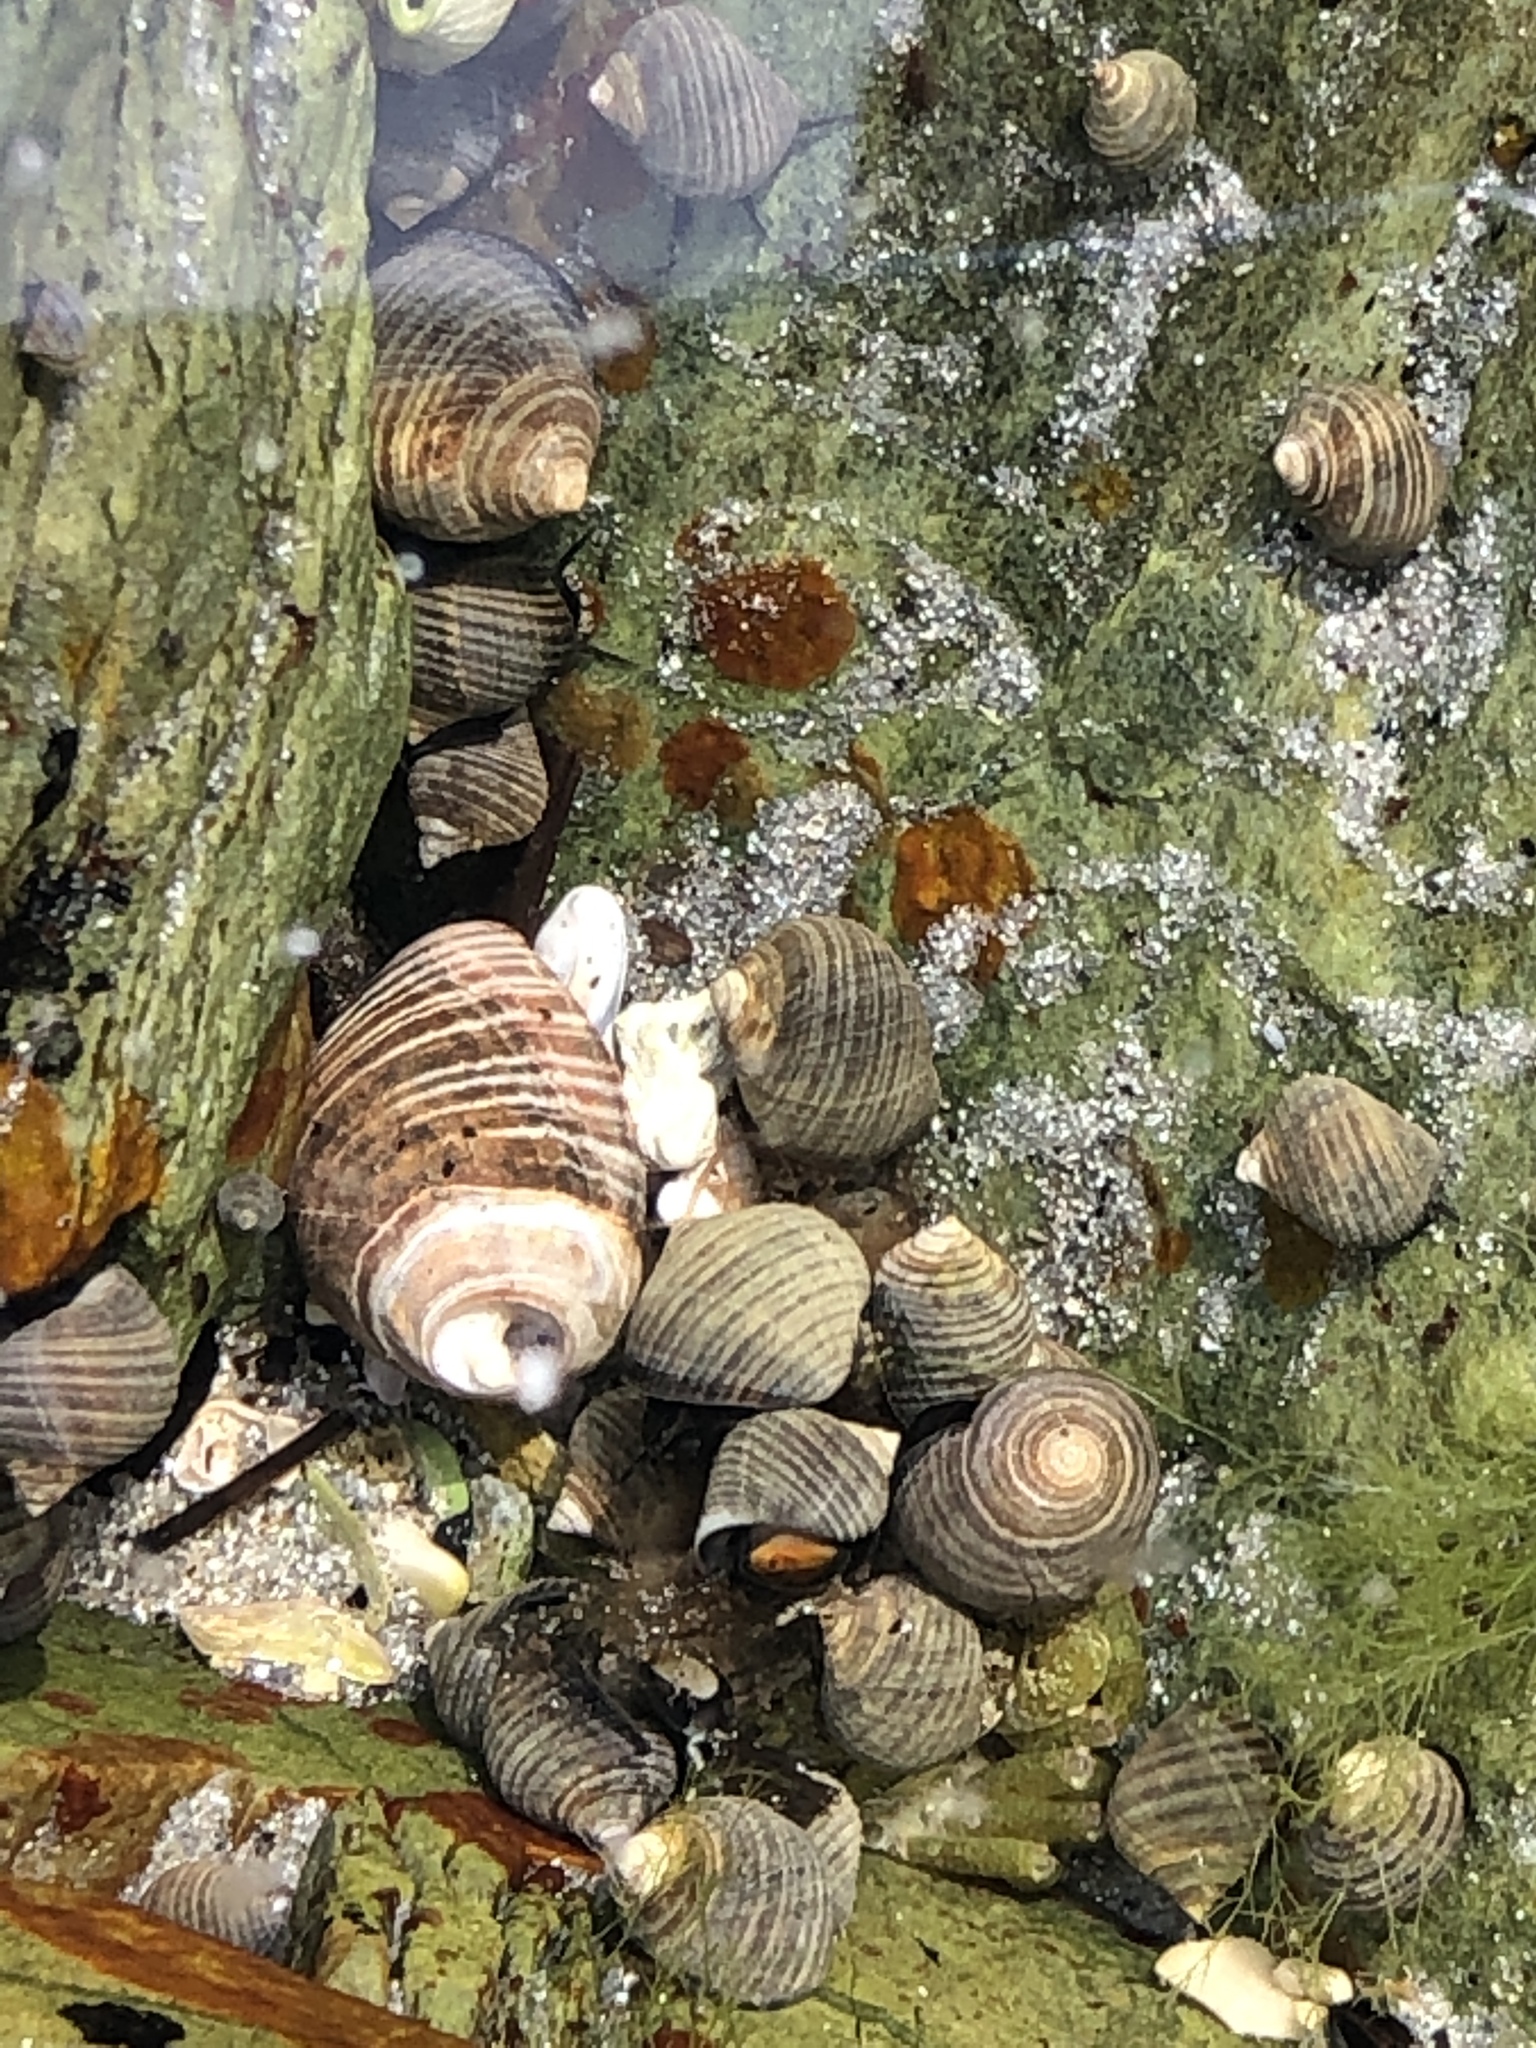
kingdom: Animalia
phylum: Mollusca
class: Gastropoda
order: Littorinimorpha
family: Littorinidae
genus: Littorina
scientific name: Littorina littorea
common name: Common periwinkle
